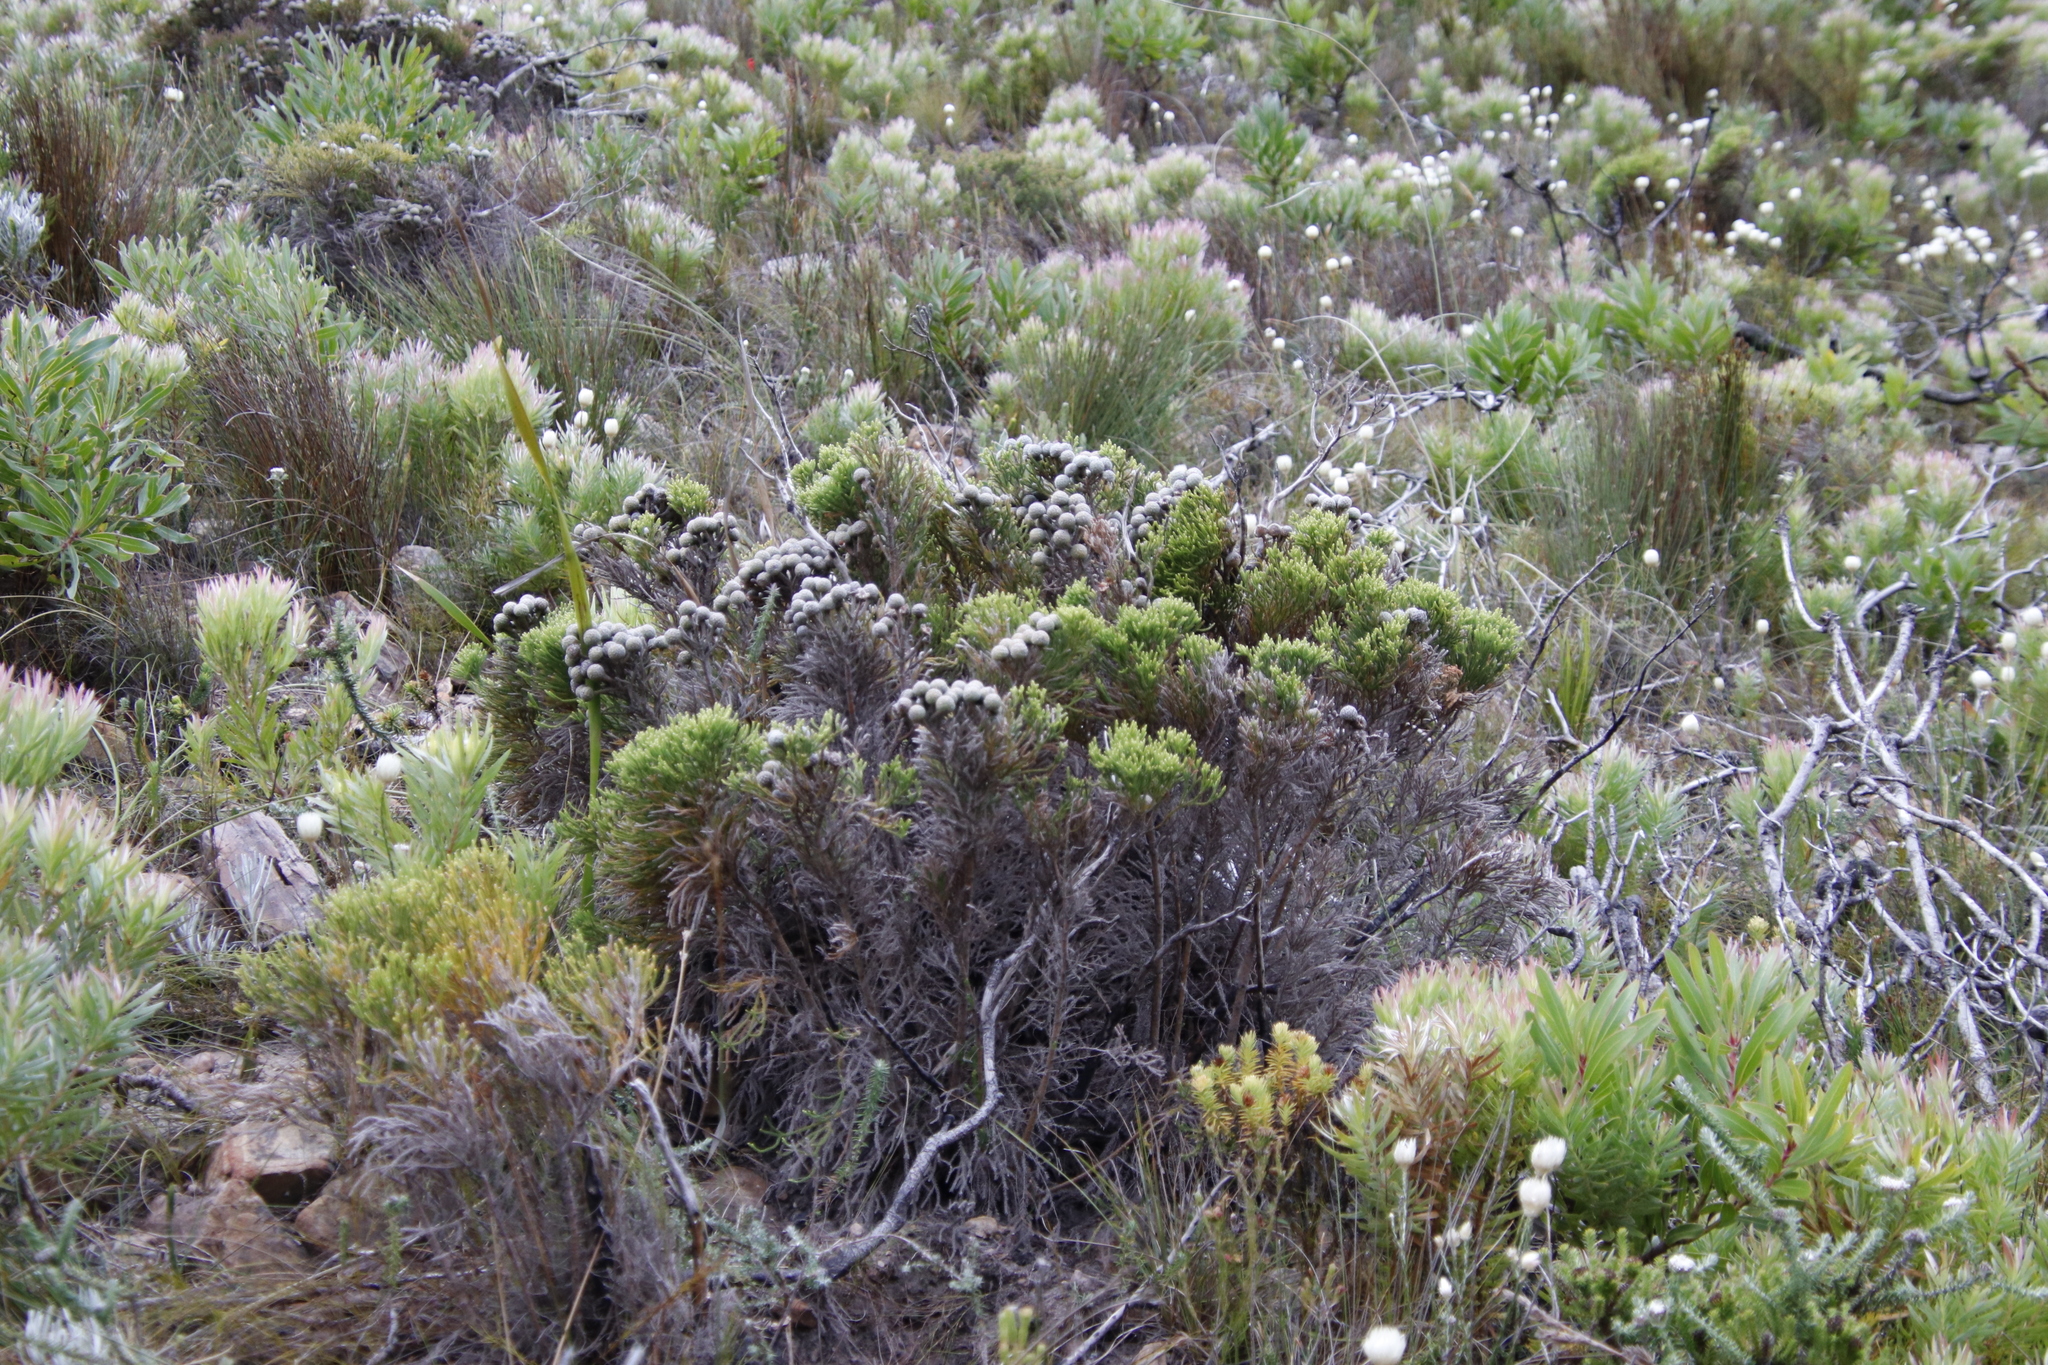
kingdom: Plantae
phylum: Tracheophyta
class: Magnoliopsida
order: Bruniales
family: Bruniaceae
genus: Brunia
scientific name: Brunia noduliflora
